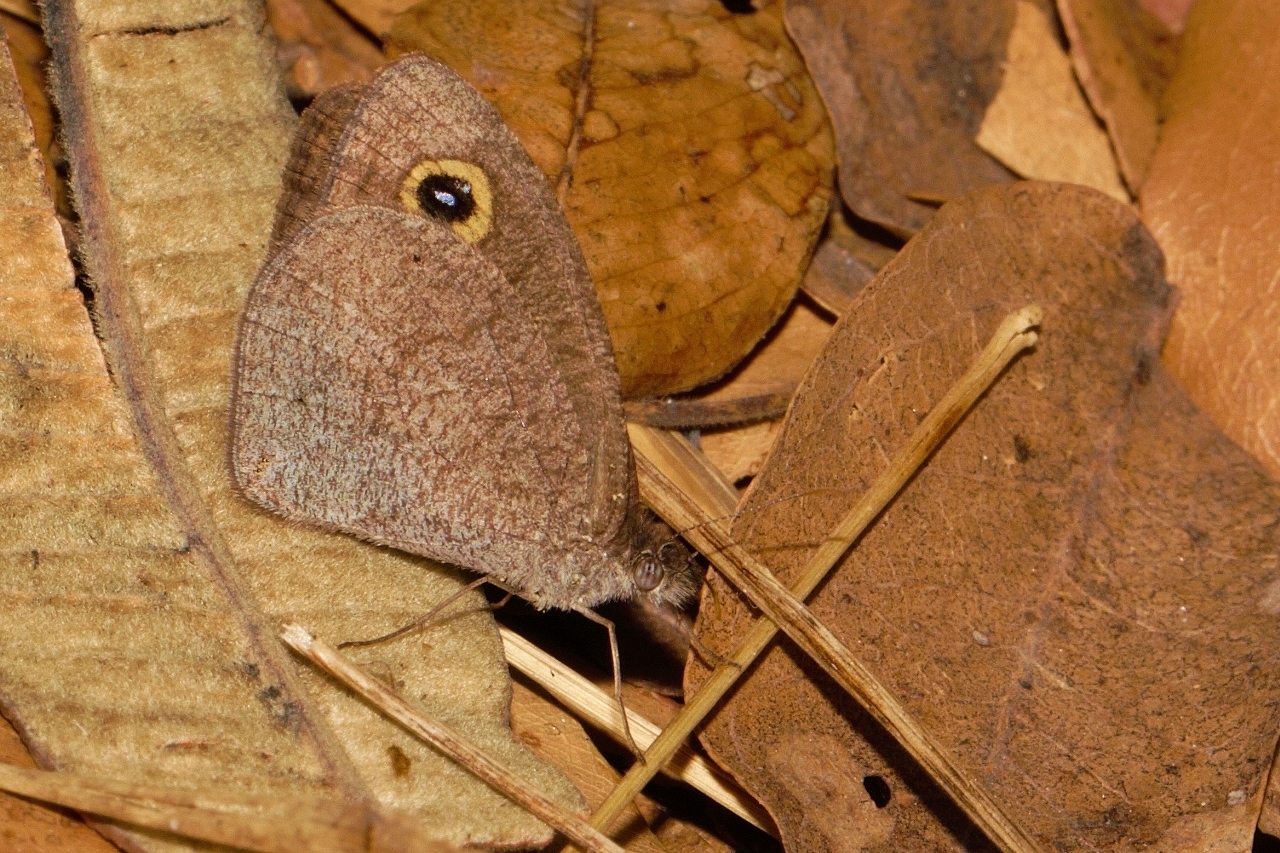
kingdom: Animalia
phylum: Arthropoda
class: Insecta
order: Lepidoptera
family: Nymphalidae
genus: Stygionympha
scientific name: Stygionympha wichgrafi
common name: Wichgraf’s hillside brown
